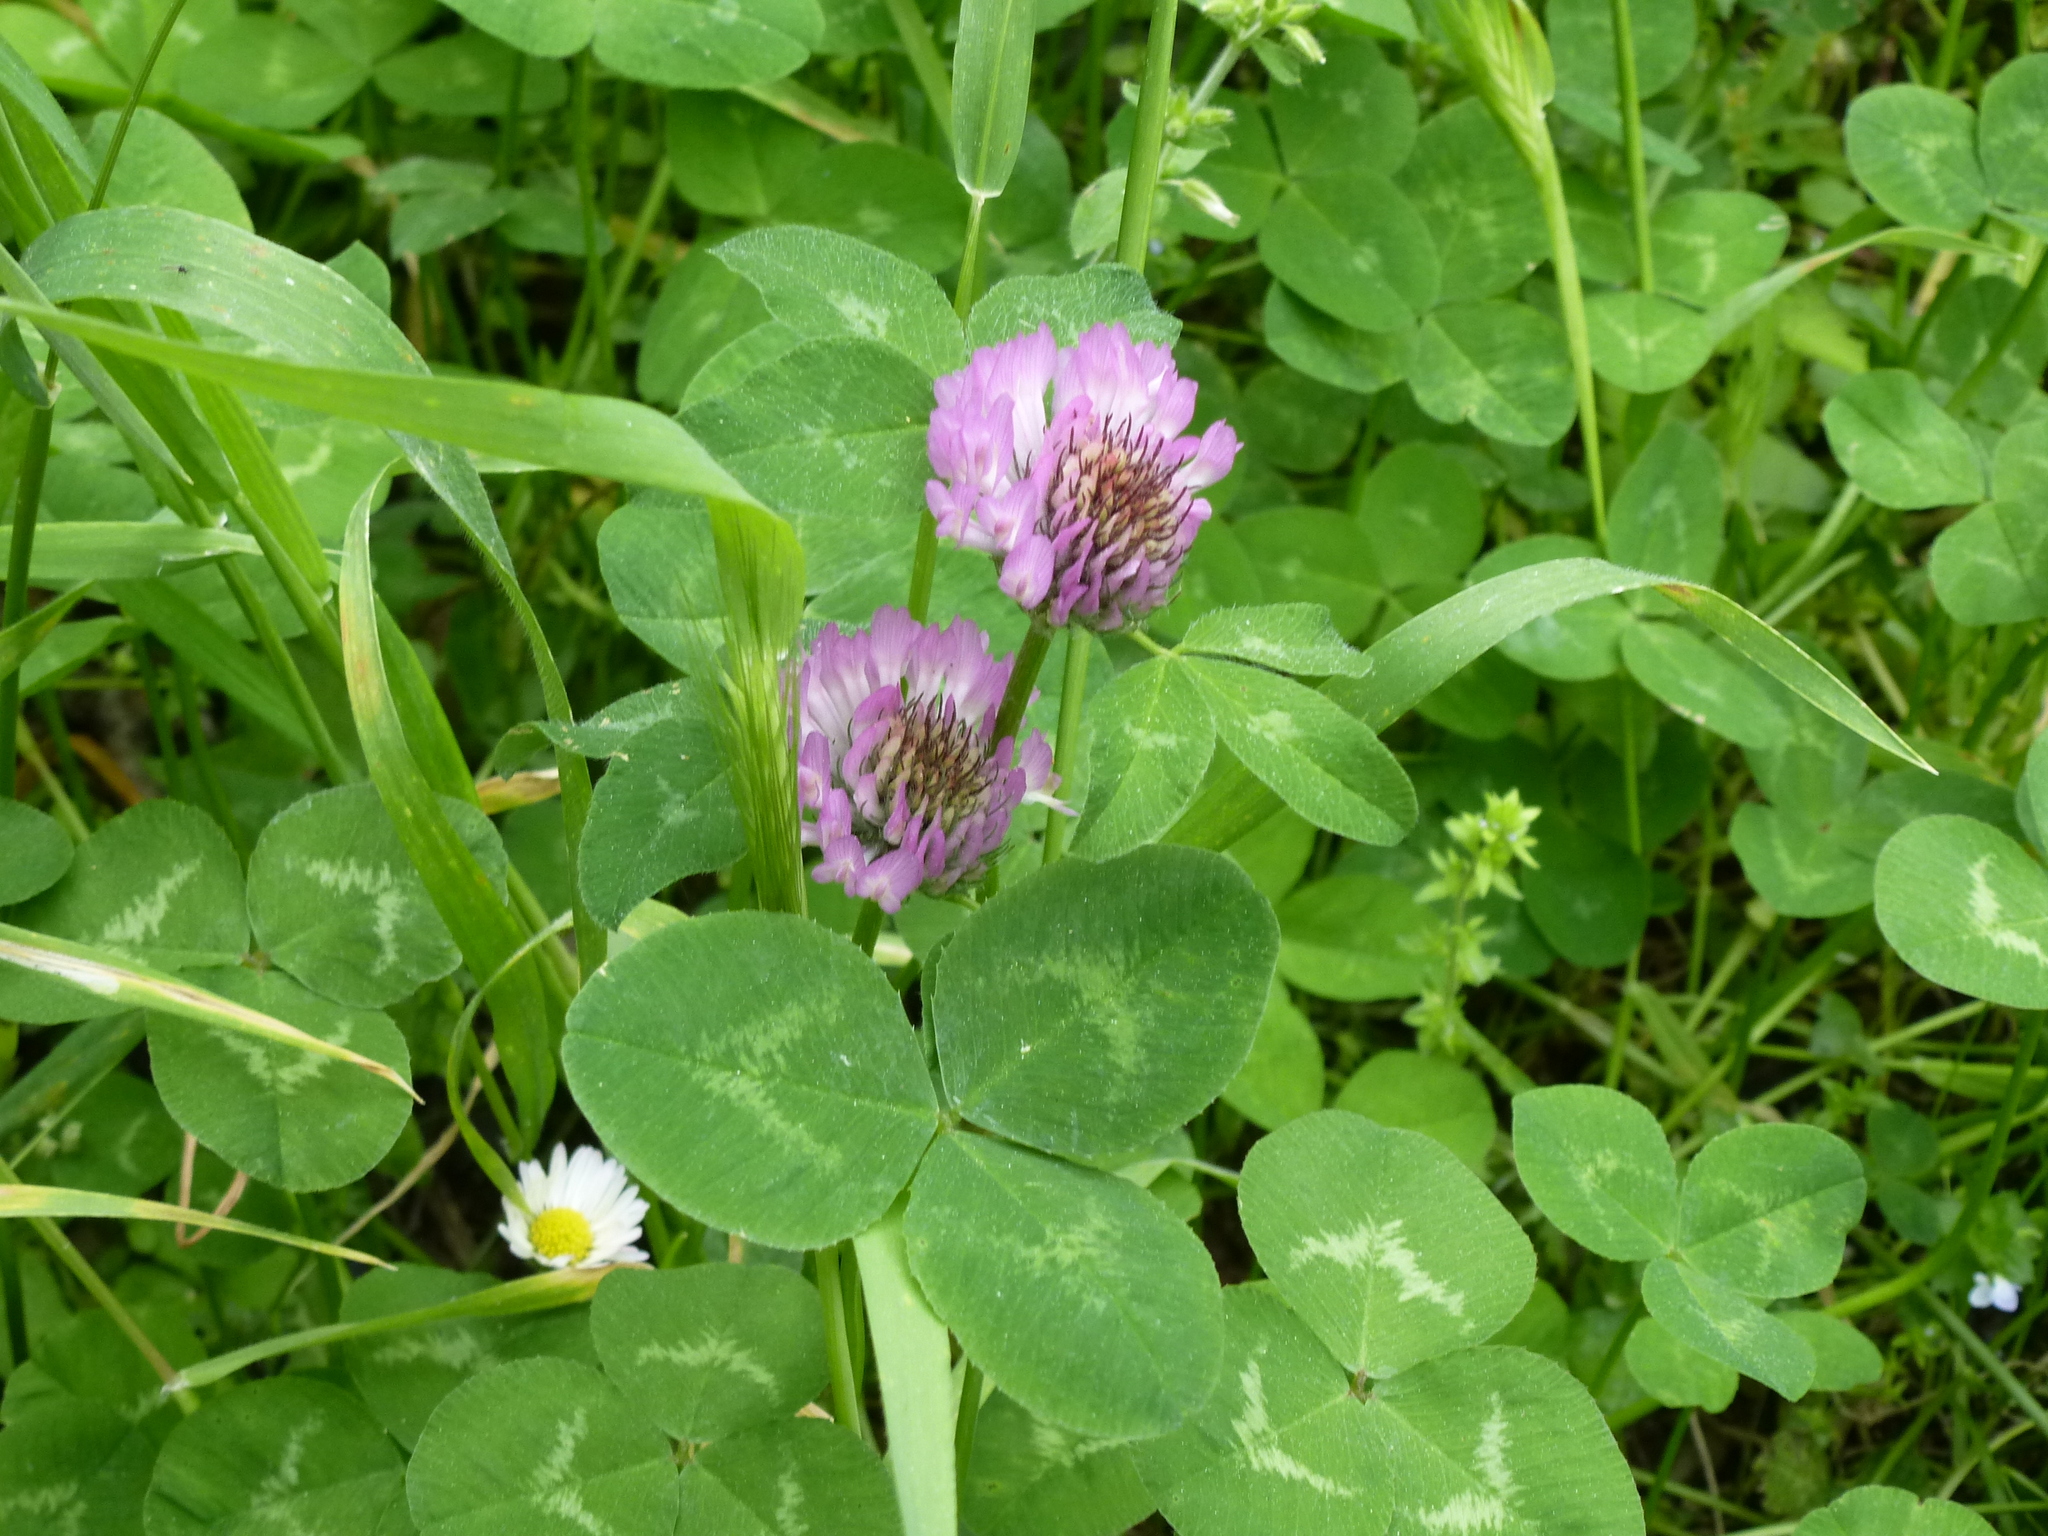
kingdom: Plantae
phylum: Tracheophyta
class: Magnoliopsida
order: Fabales
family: Fabaceae
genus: Trifolium
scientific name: Trifolium pratense
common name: Red clover
